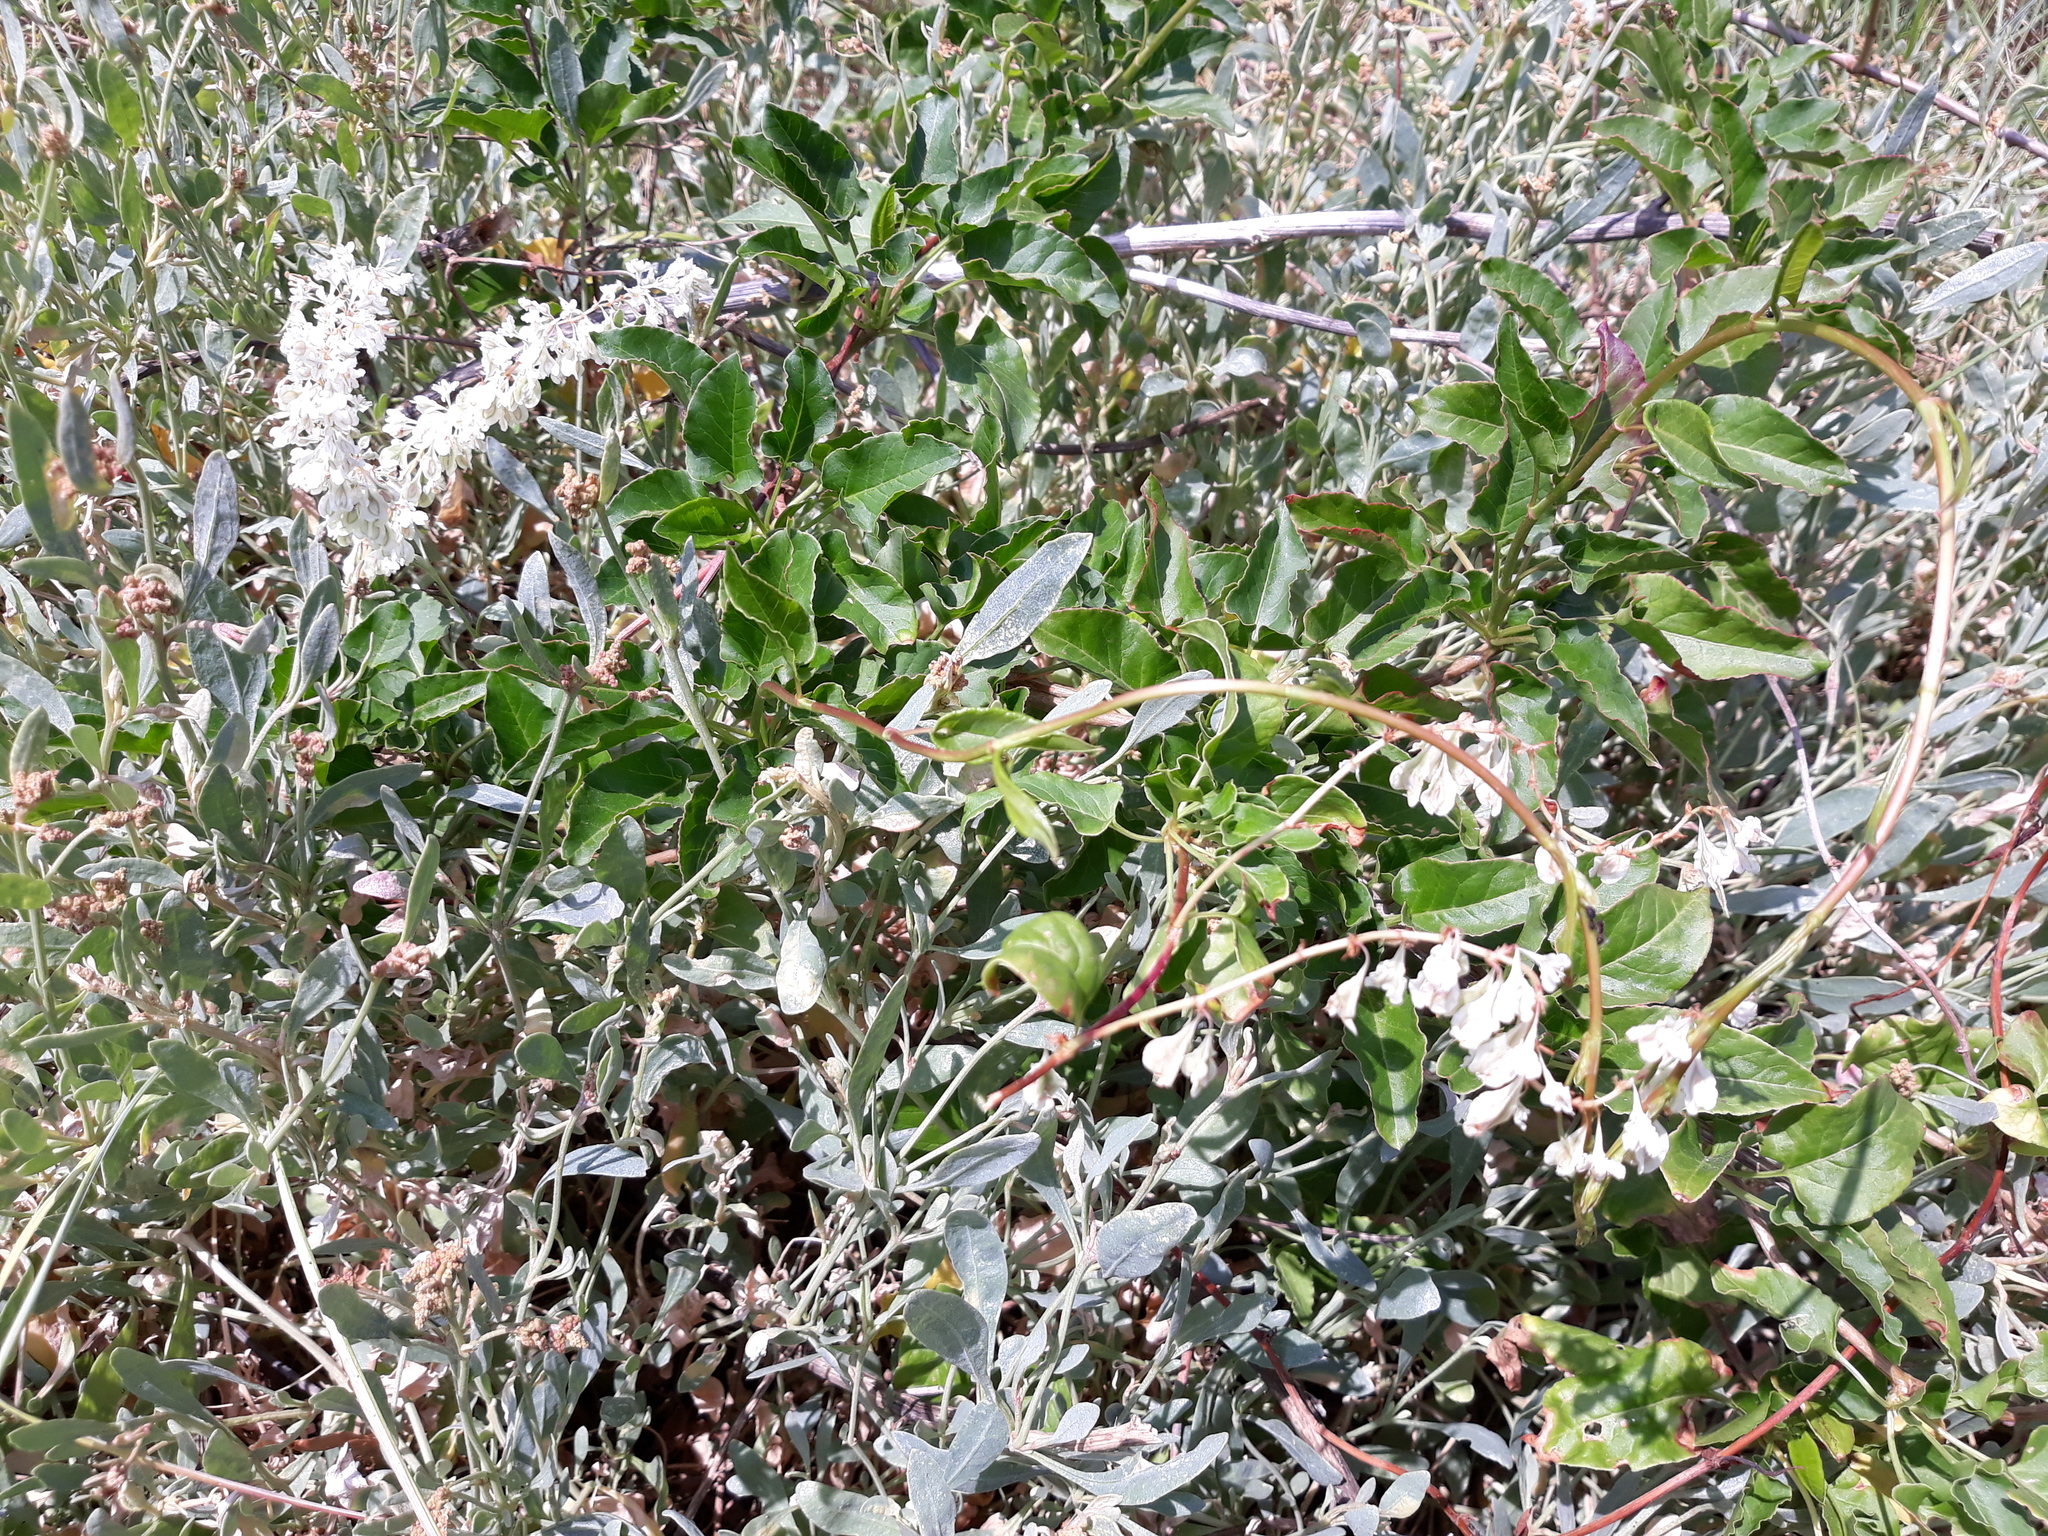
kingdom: Plantae
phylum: Tracheophyta
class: Magnoliopsida
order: Caryophyllales
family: Polygonaceae
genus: Fallopia
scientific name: Fallopia baldschuanica
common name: Russian-vine
